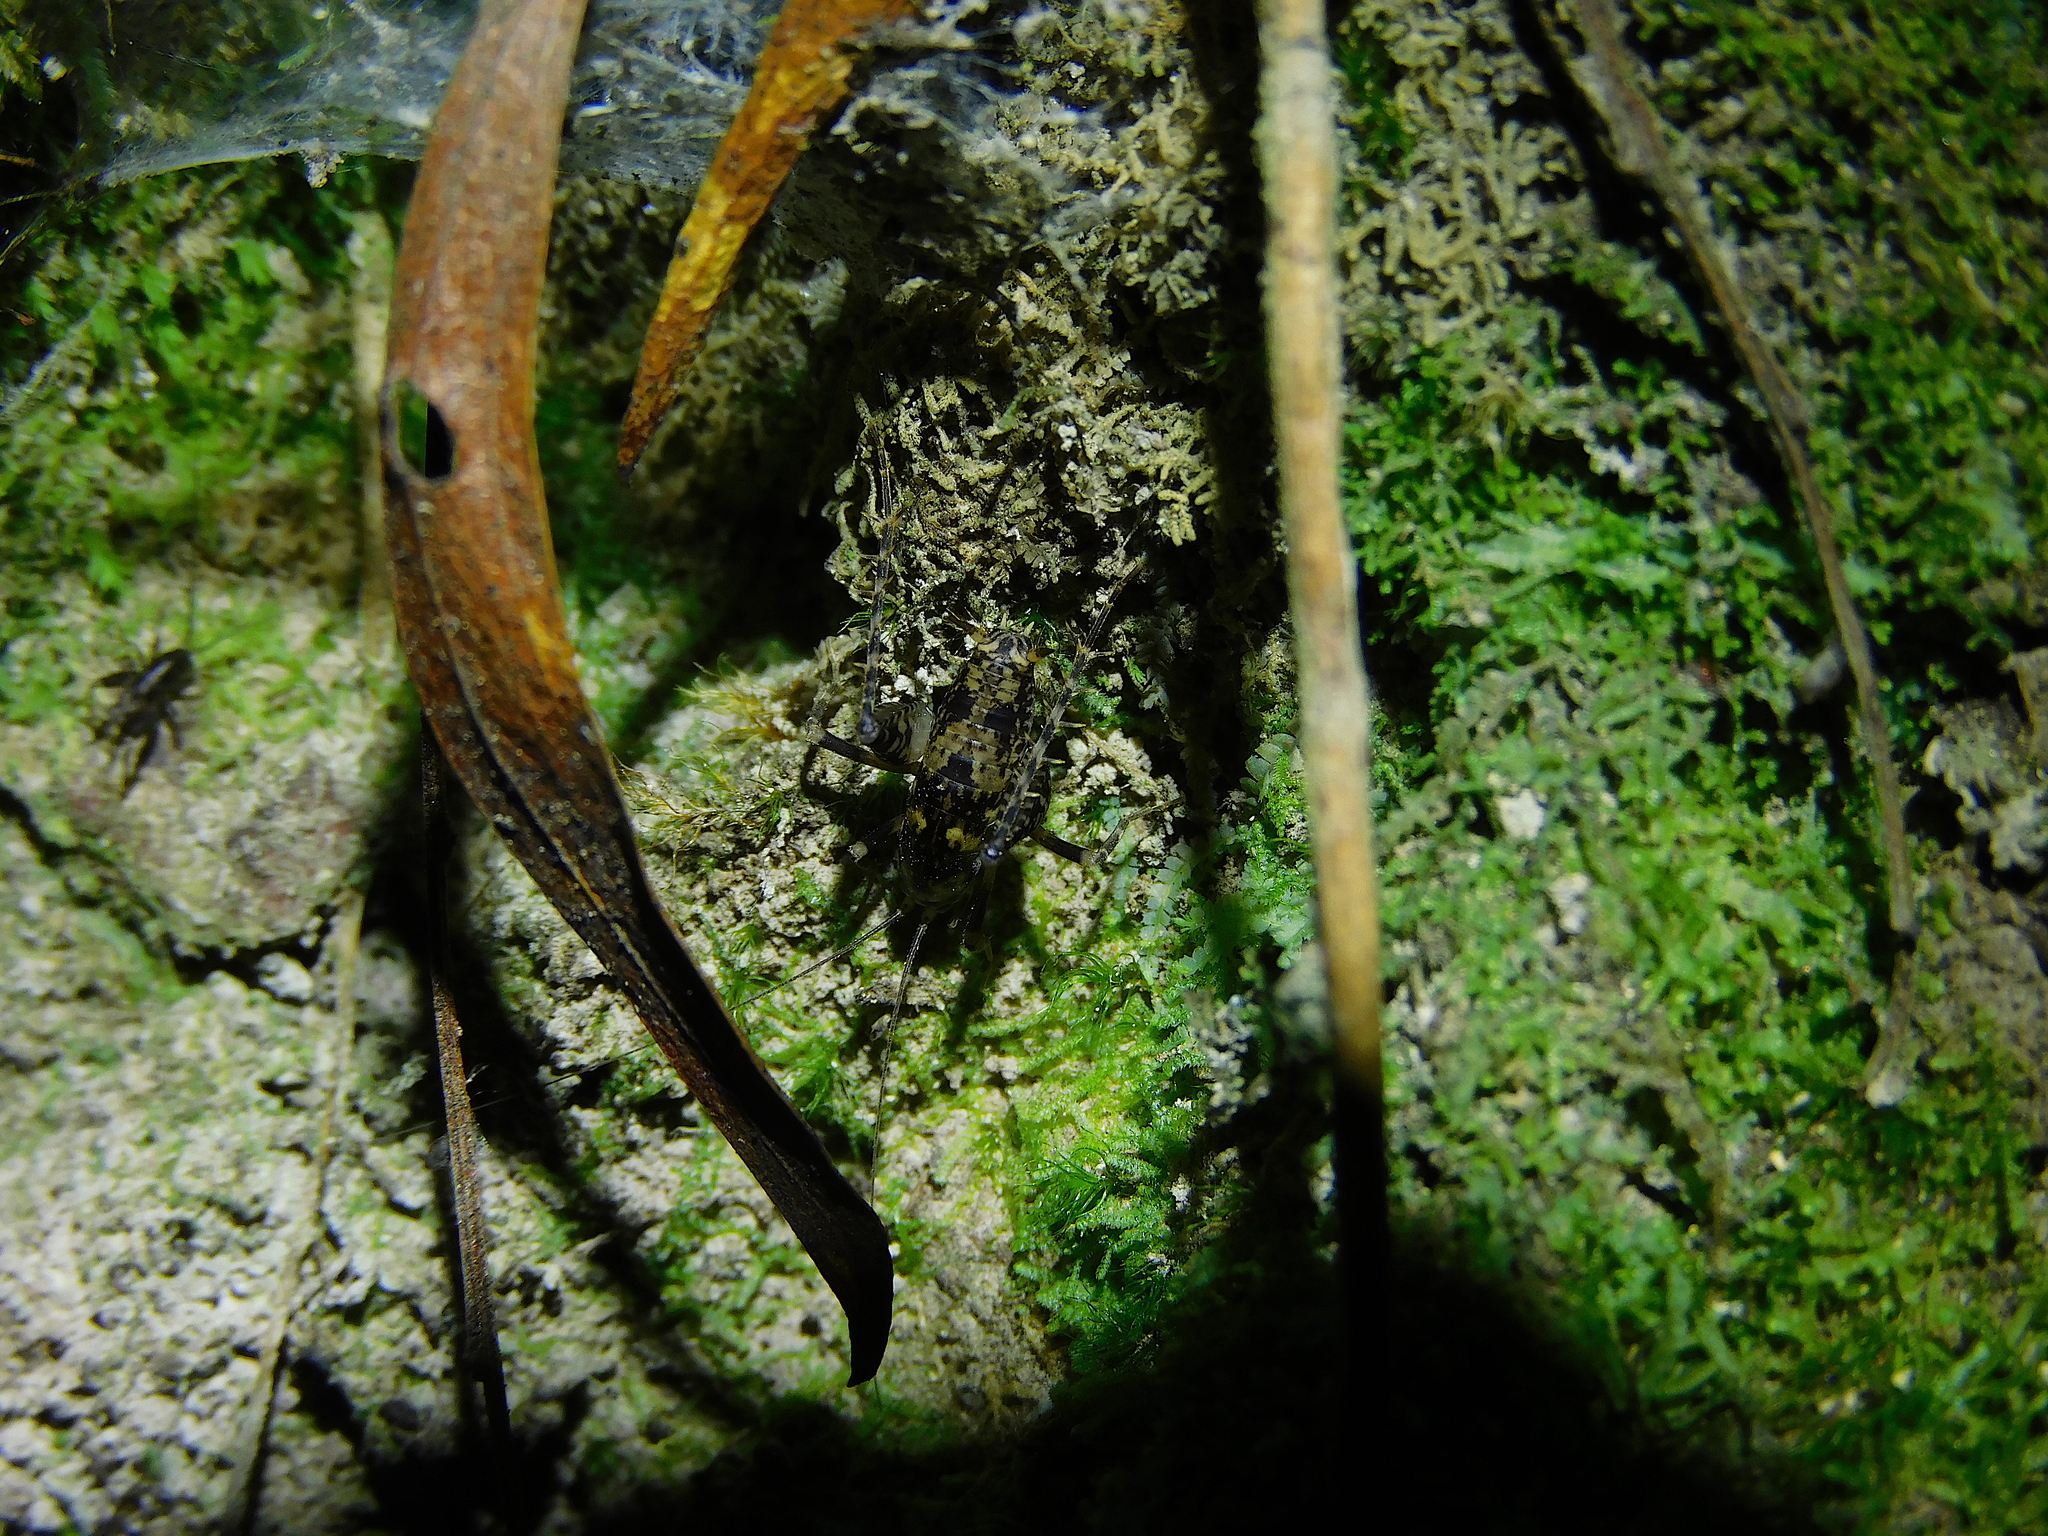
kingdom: Animalia
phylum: Arthropoda
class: Insecta
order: Orthoptera
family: Rhaphidophoridae
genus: Parvotettix
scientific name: Parvotettix domesticus
